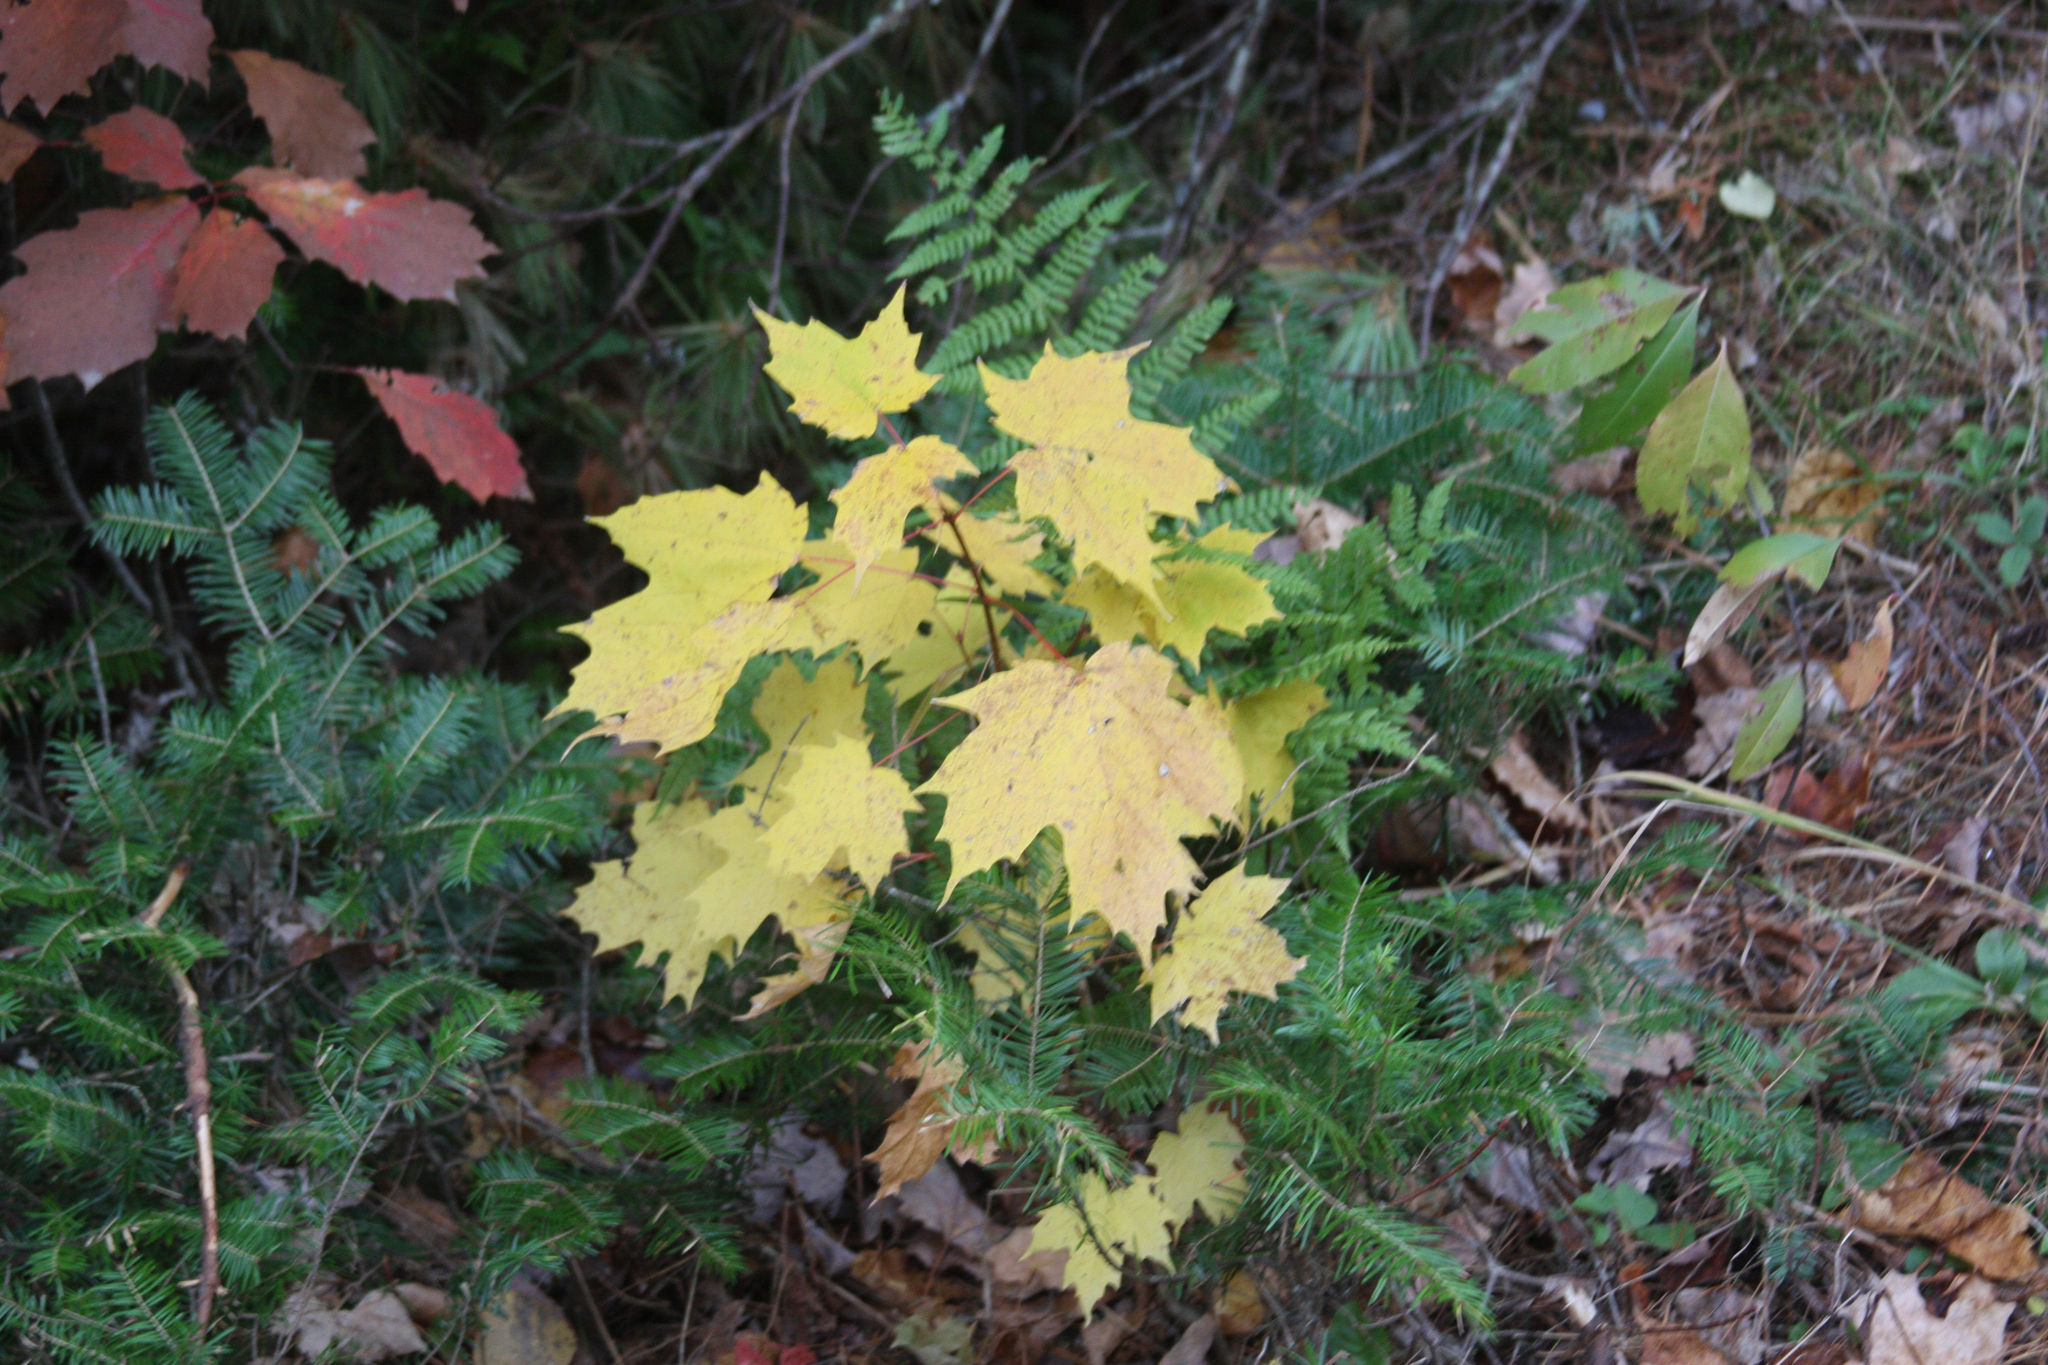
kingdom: Plantae
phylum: Tracheophyta
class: Magnoliopsida
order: Sapindales
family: Sapindaceae
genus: Acer
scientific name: Acer saccharum
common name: Sugar maple
